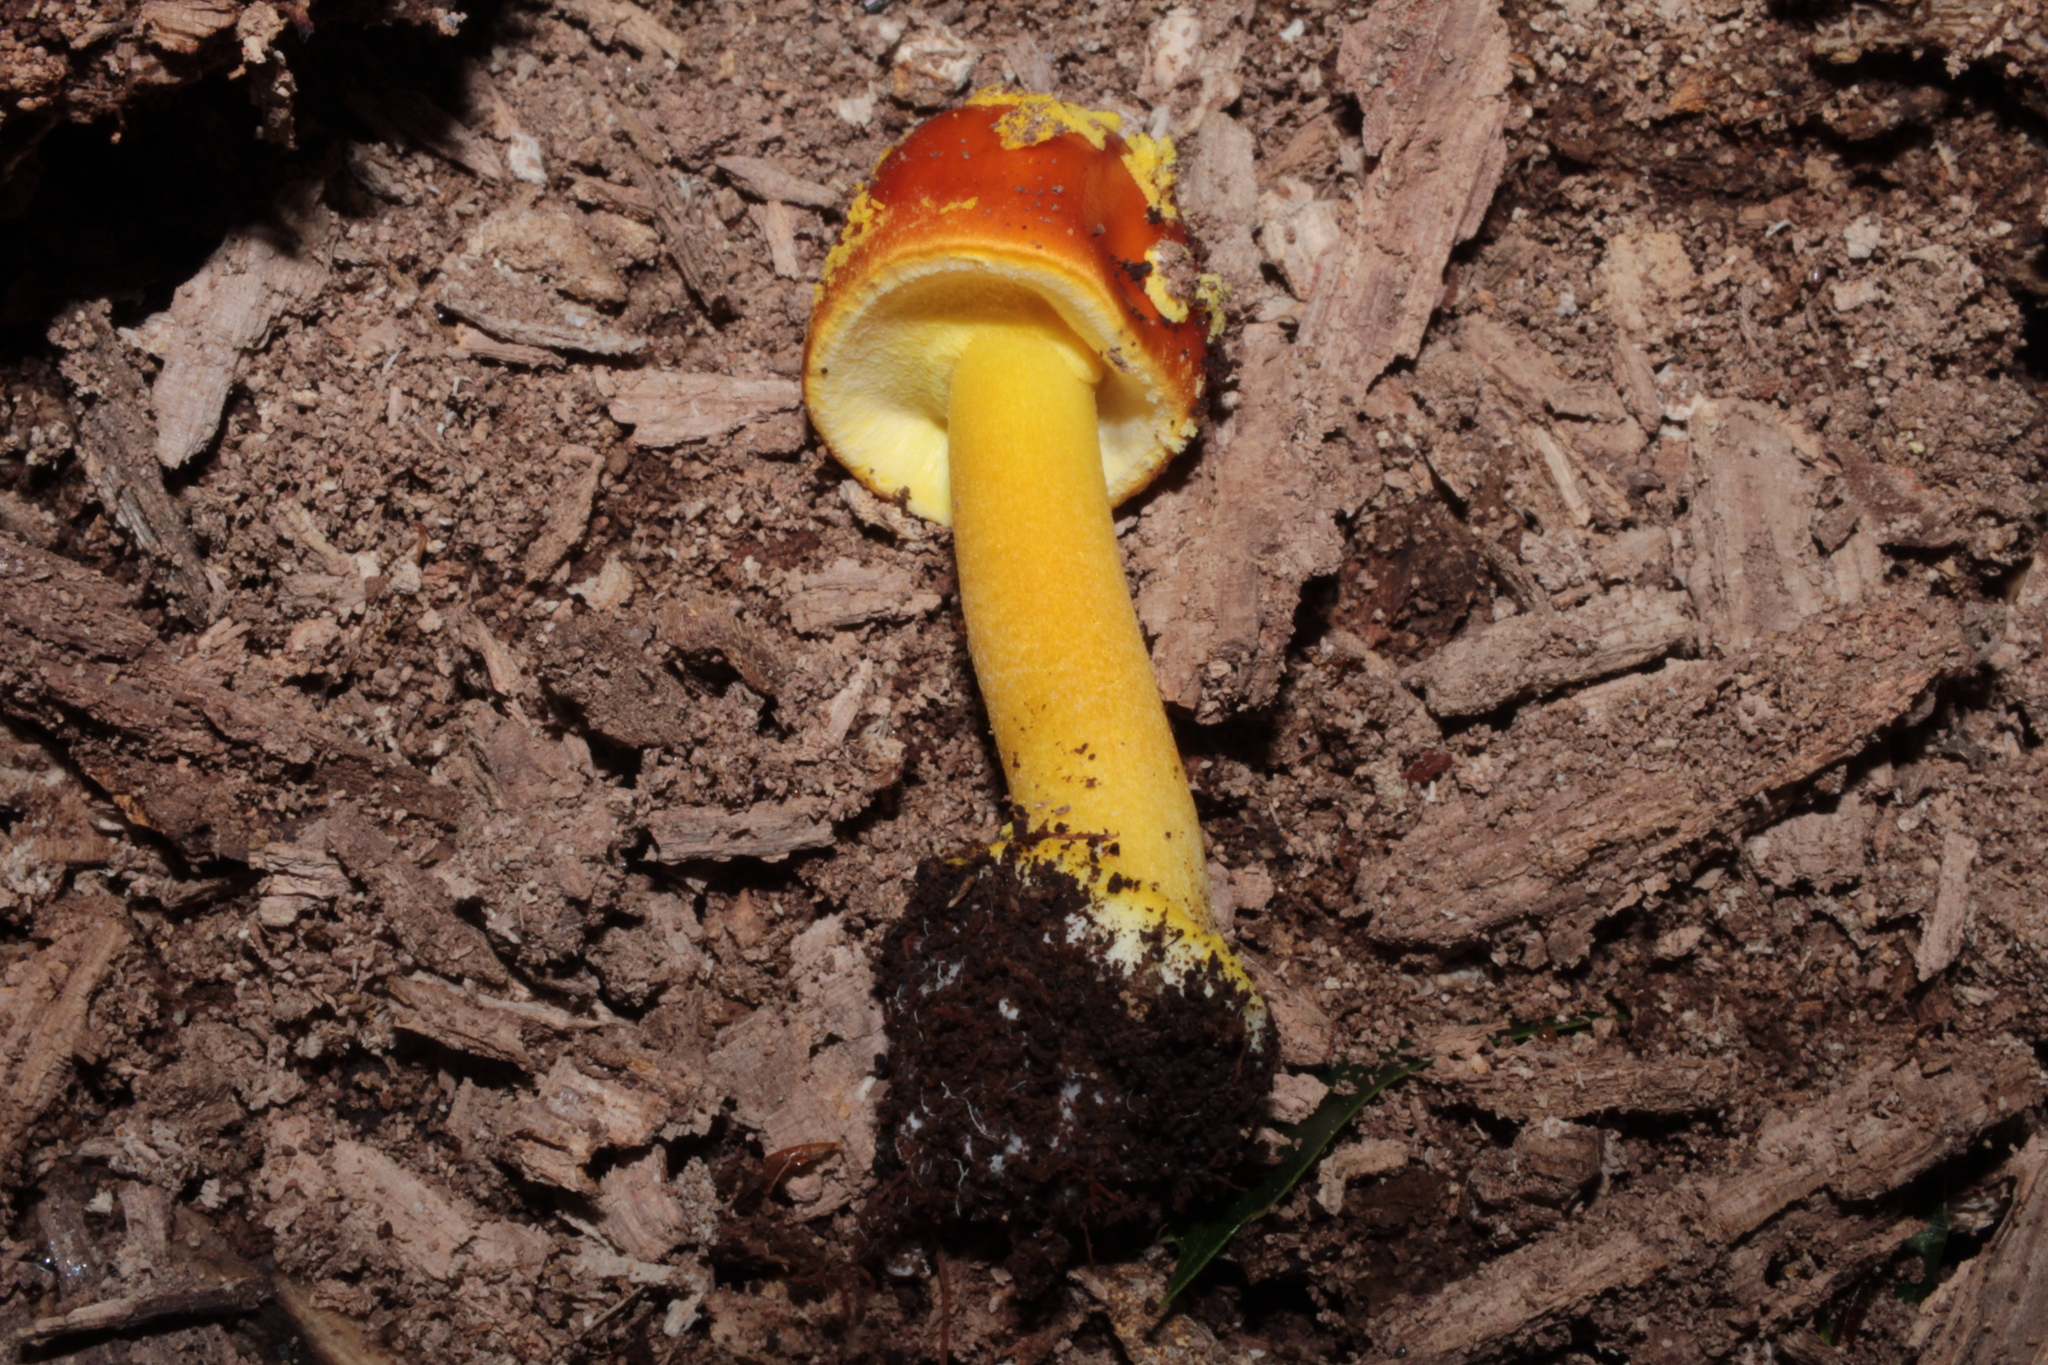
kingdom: Fungi
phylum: Basidiomycota
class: Agaricomycetes
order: Agaricales
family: Amanitaceae
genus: Amanita
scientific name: Amanita flavoconia
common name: Yellow patches
